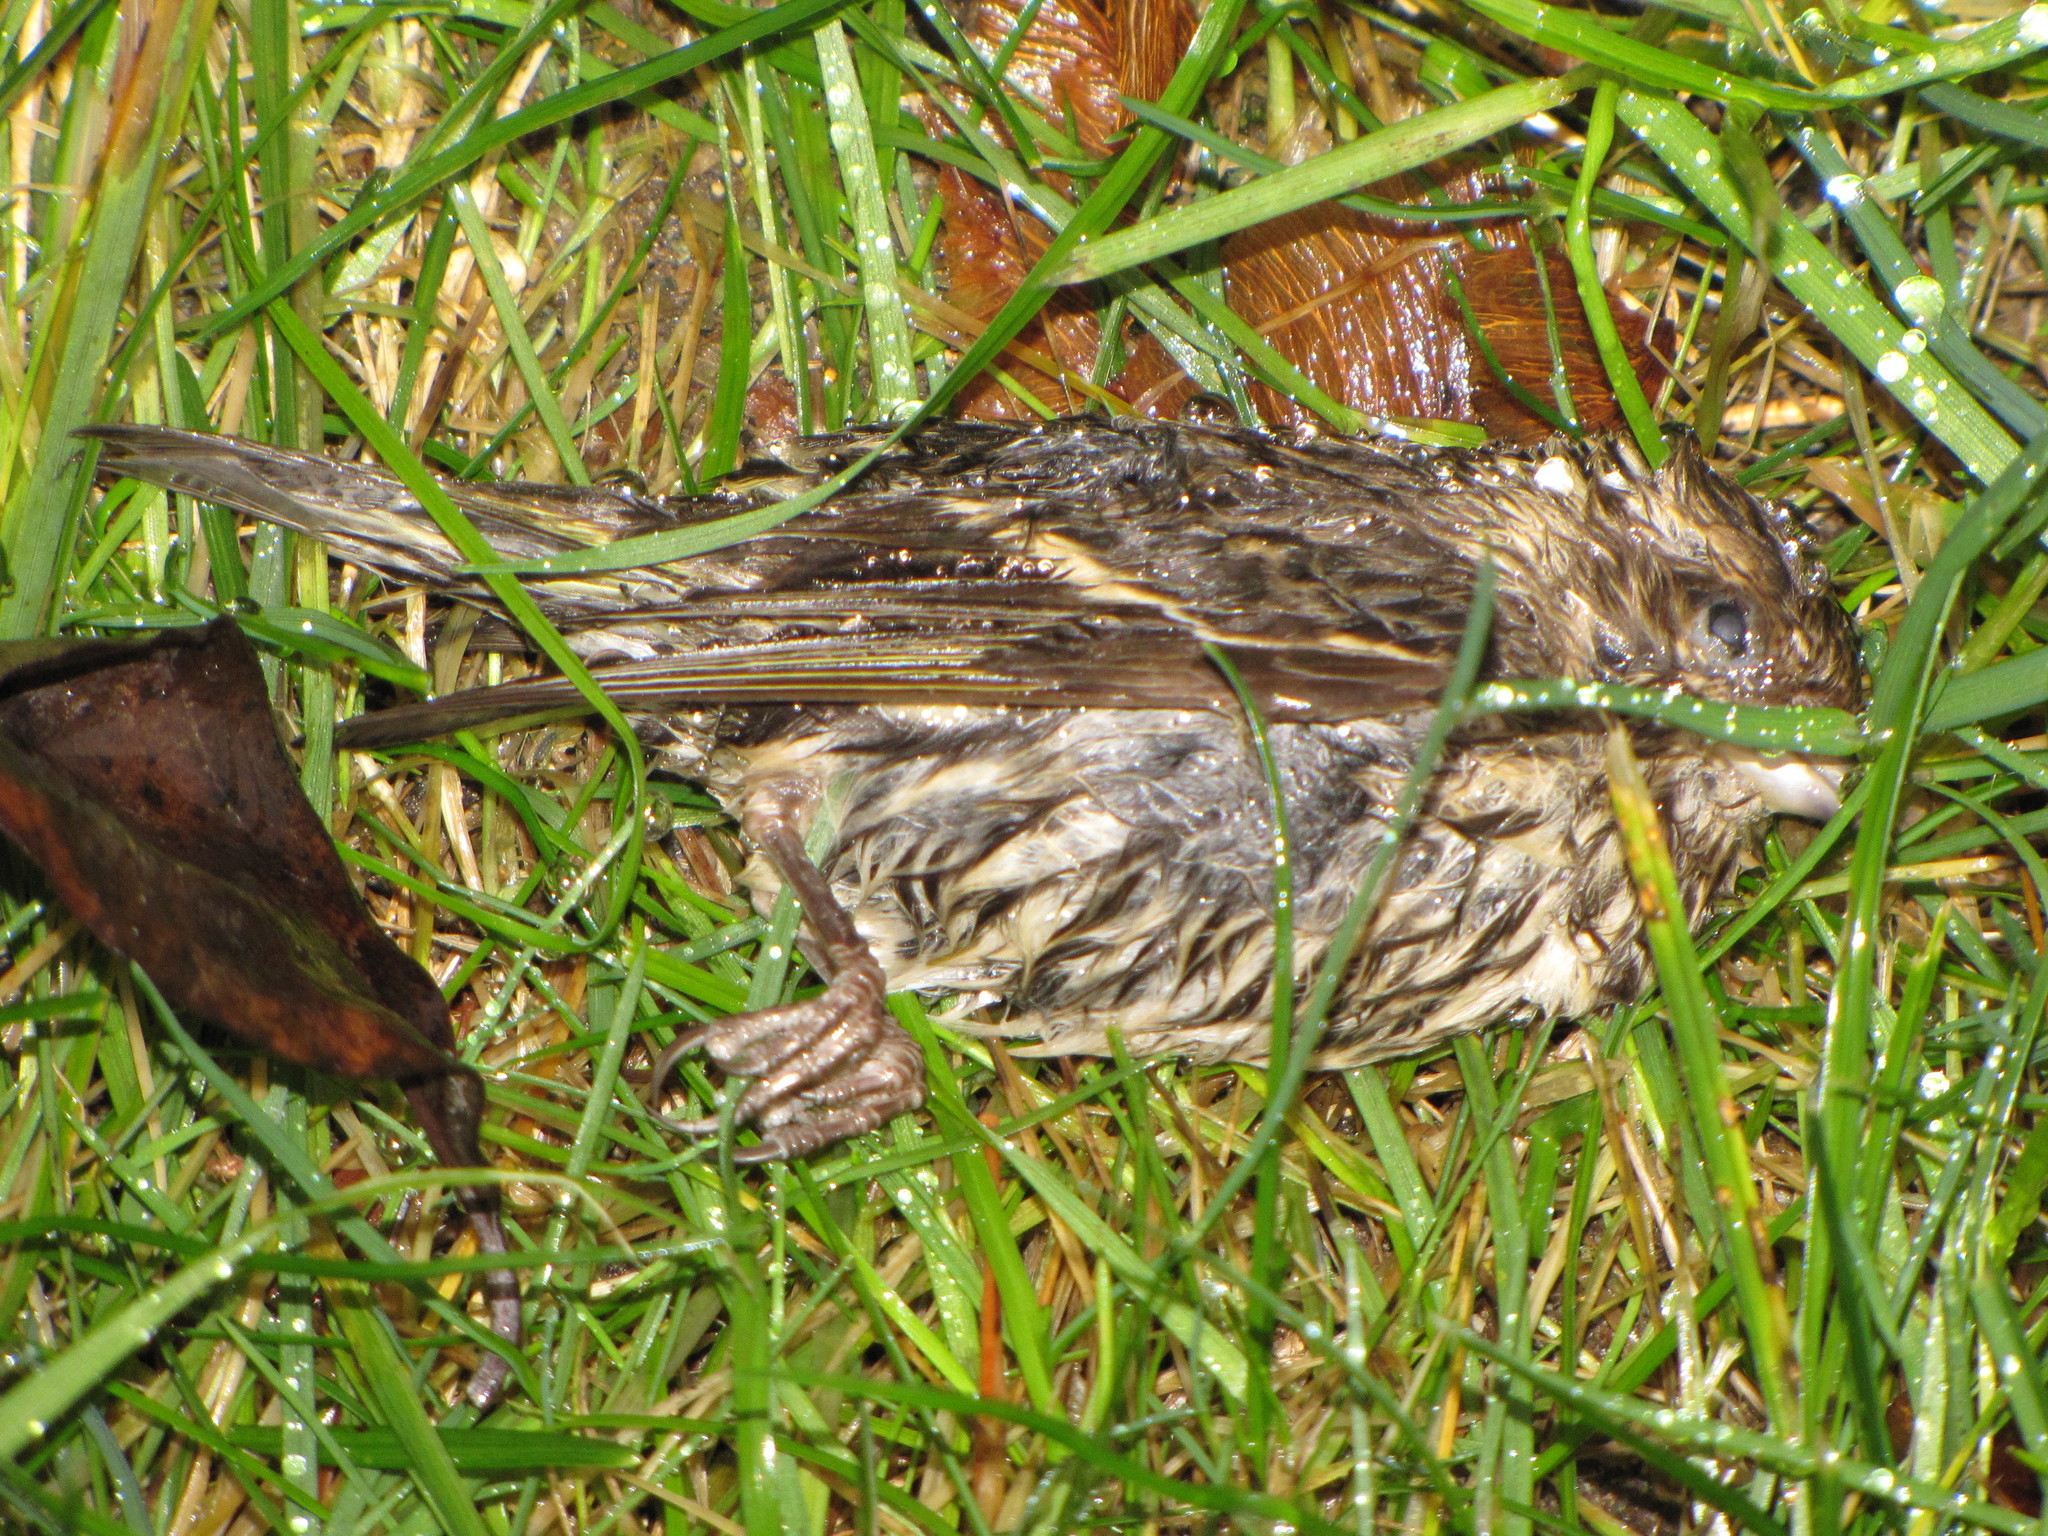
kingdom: Animalia
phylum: Chordata
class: Aves
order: Passeriformes
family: Fringillidae
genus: Spinus
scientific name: Spinus pinus
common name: Pine siskin
